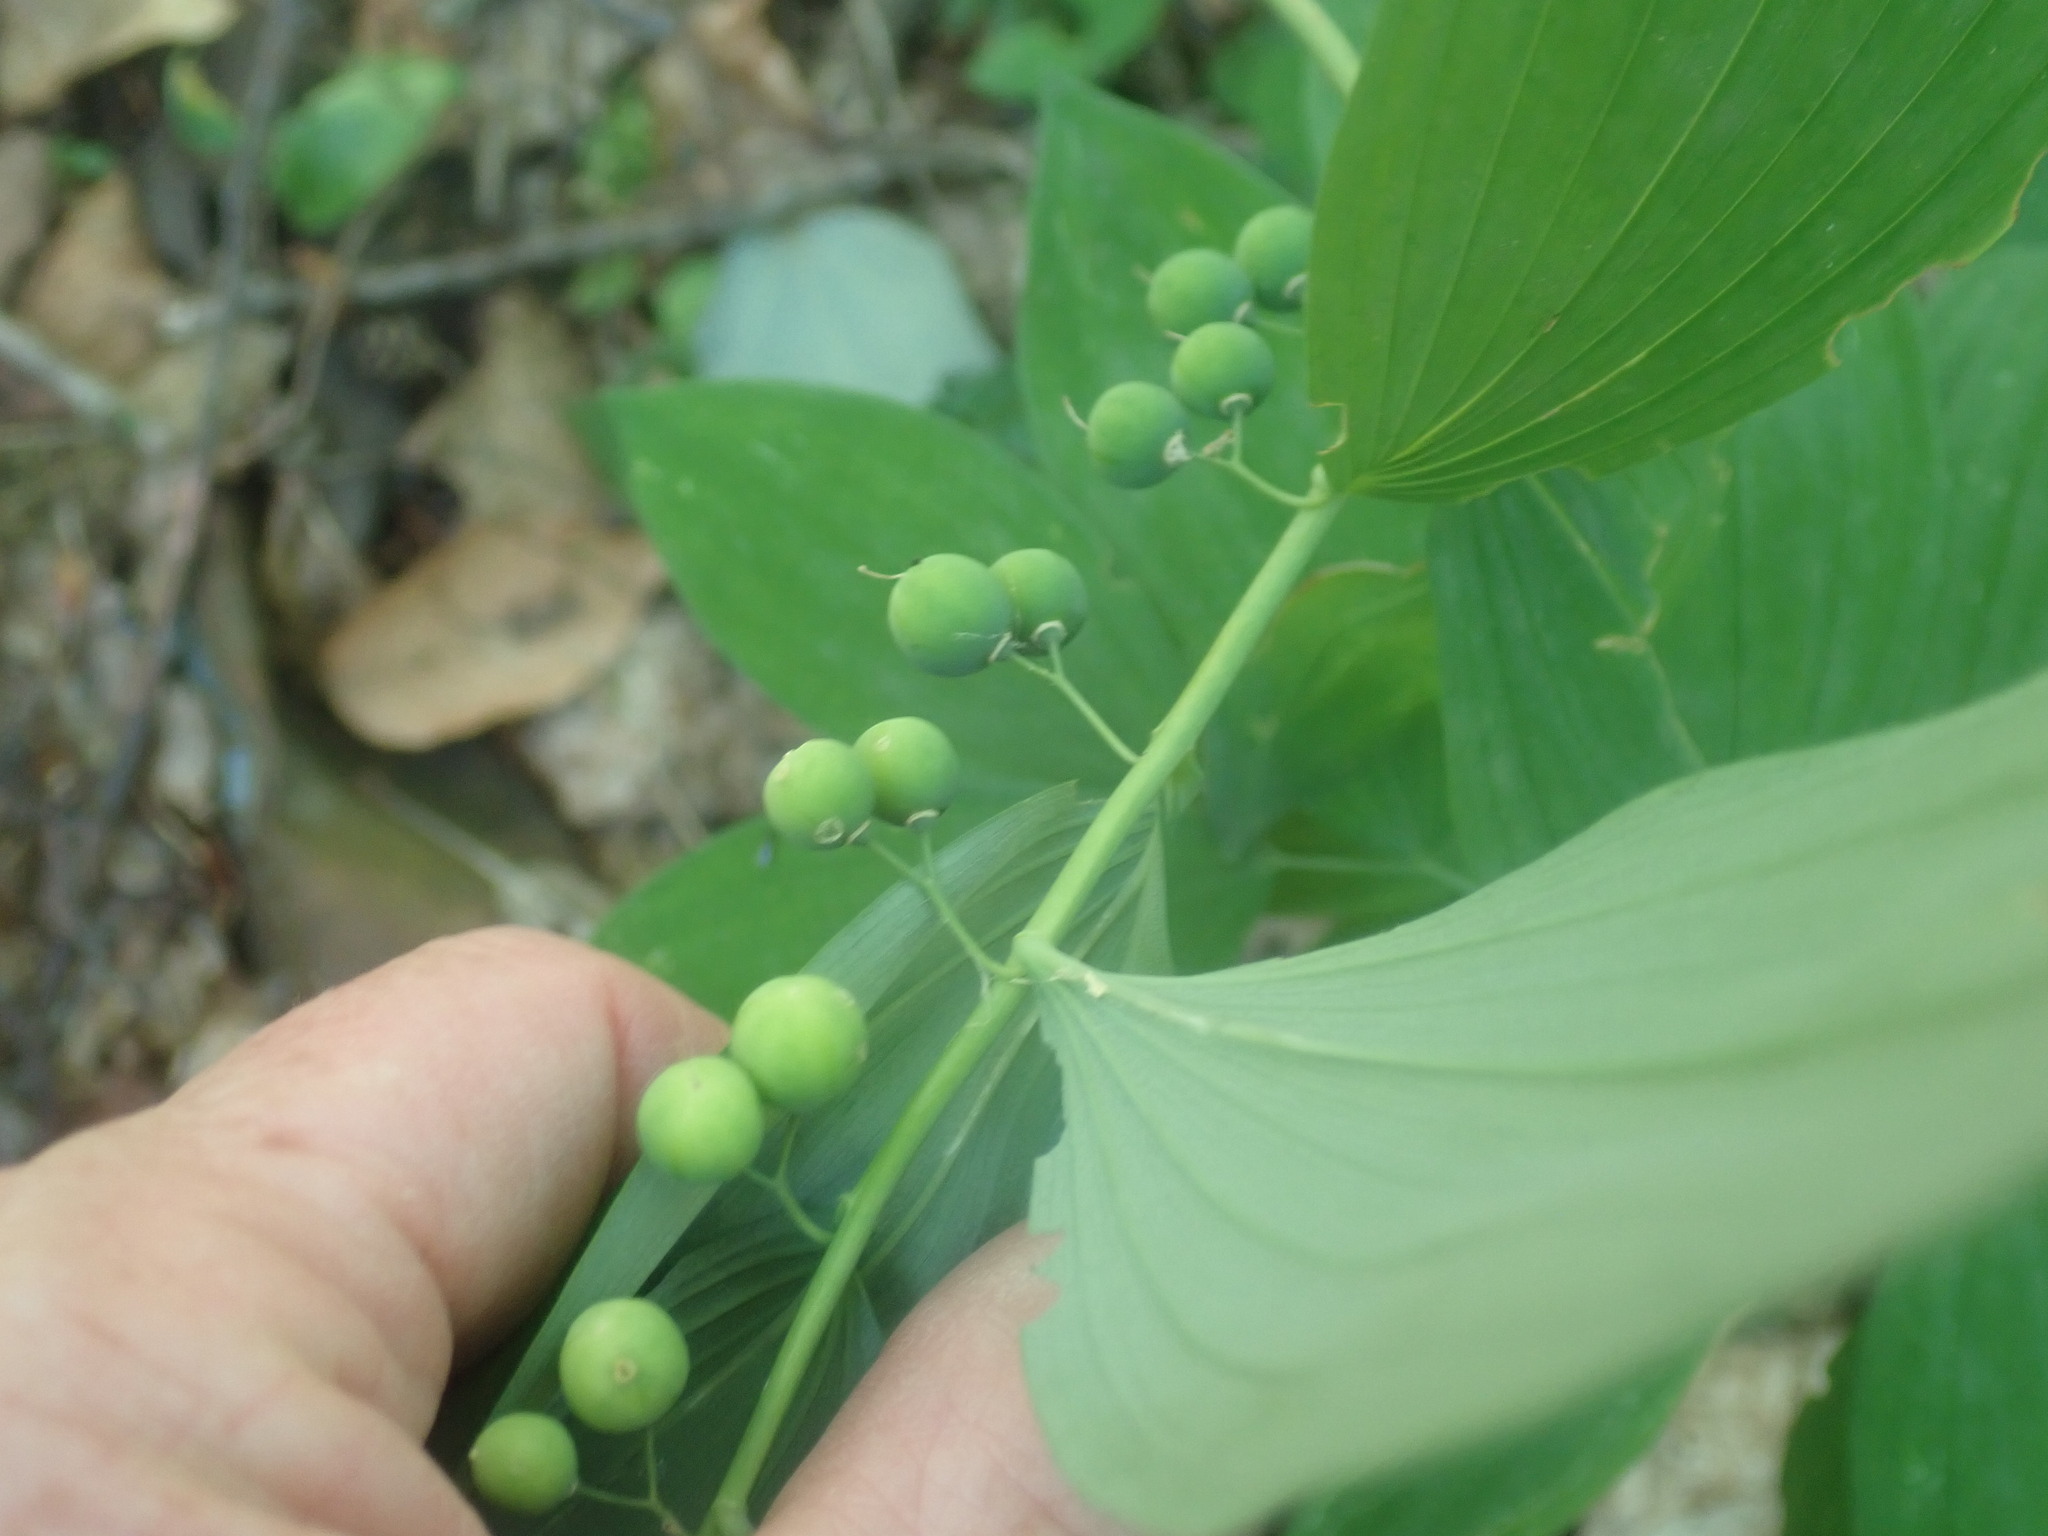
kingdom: Plantae
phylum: Tracheophyta
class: Liliopsida
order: Asparagales
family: Asparagaceae
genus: Polygonatum
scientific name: Polygonatum pubescens
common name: Downy solomon's seal
